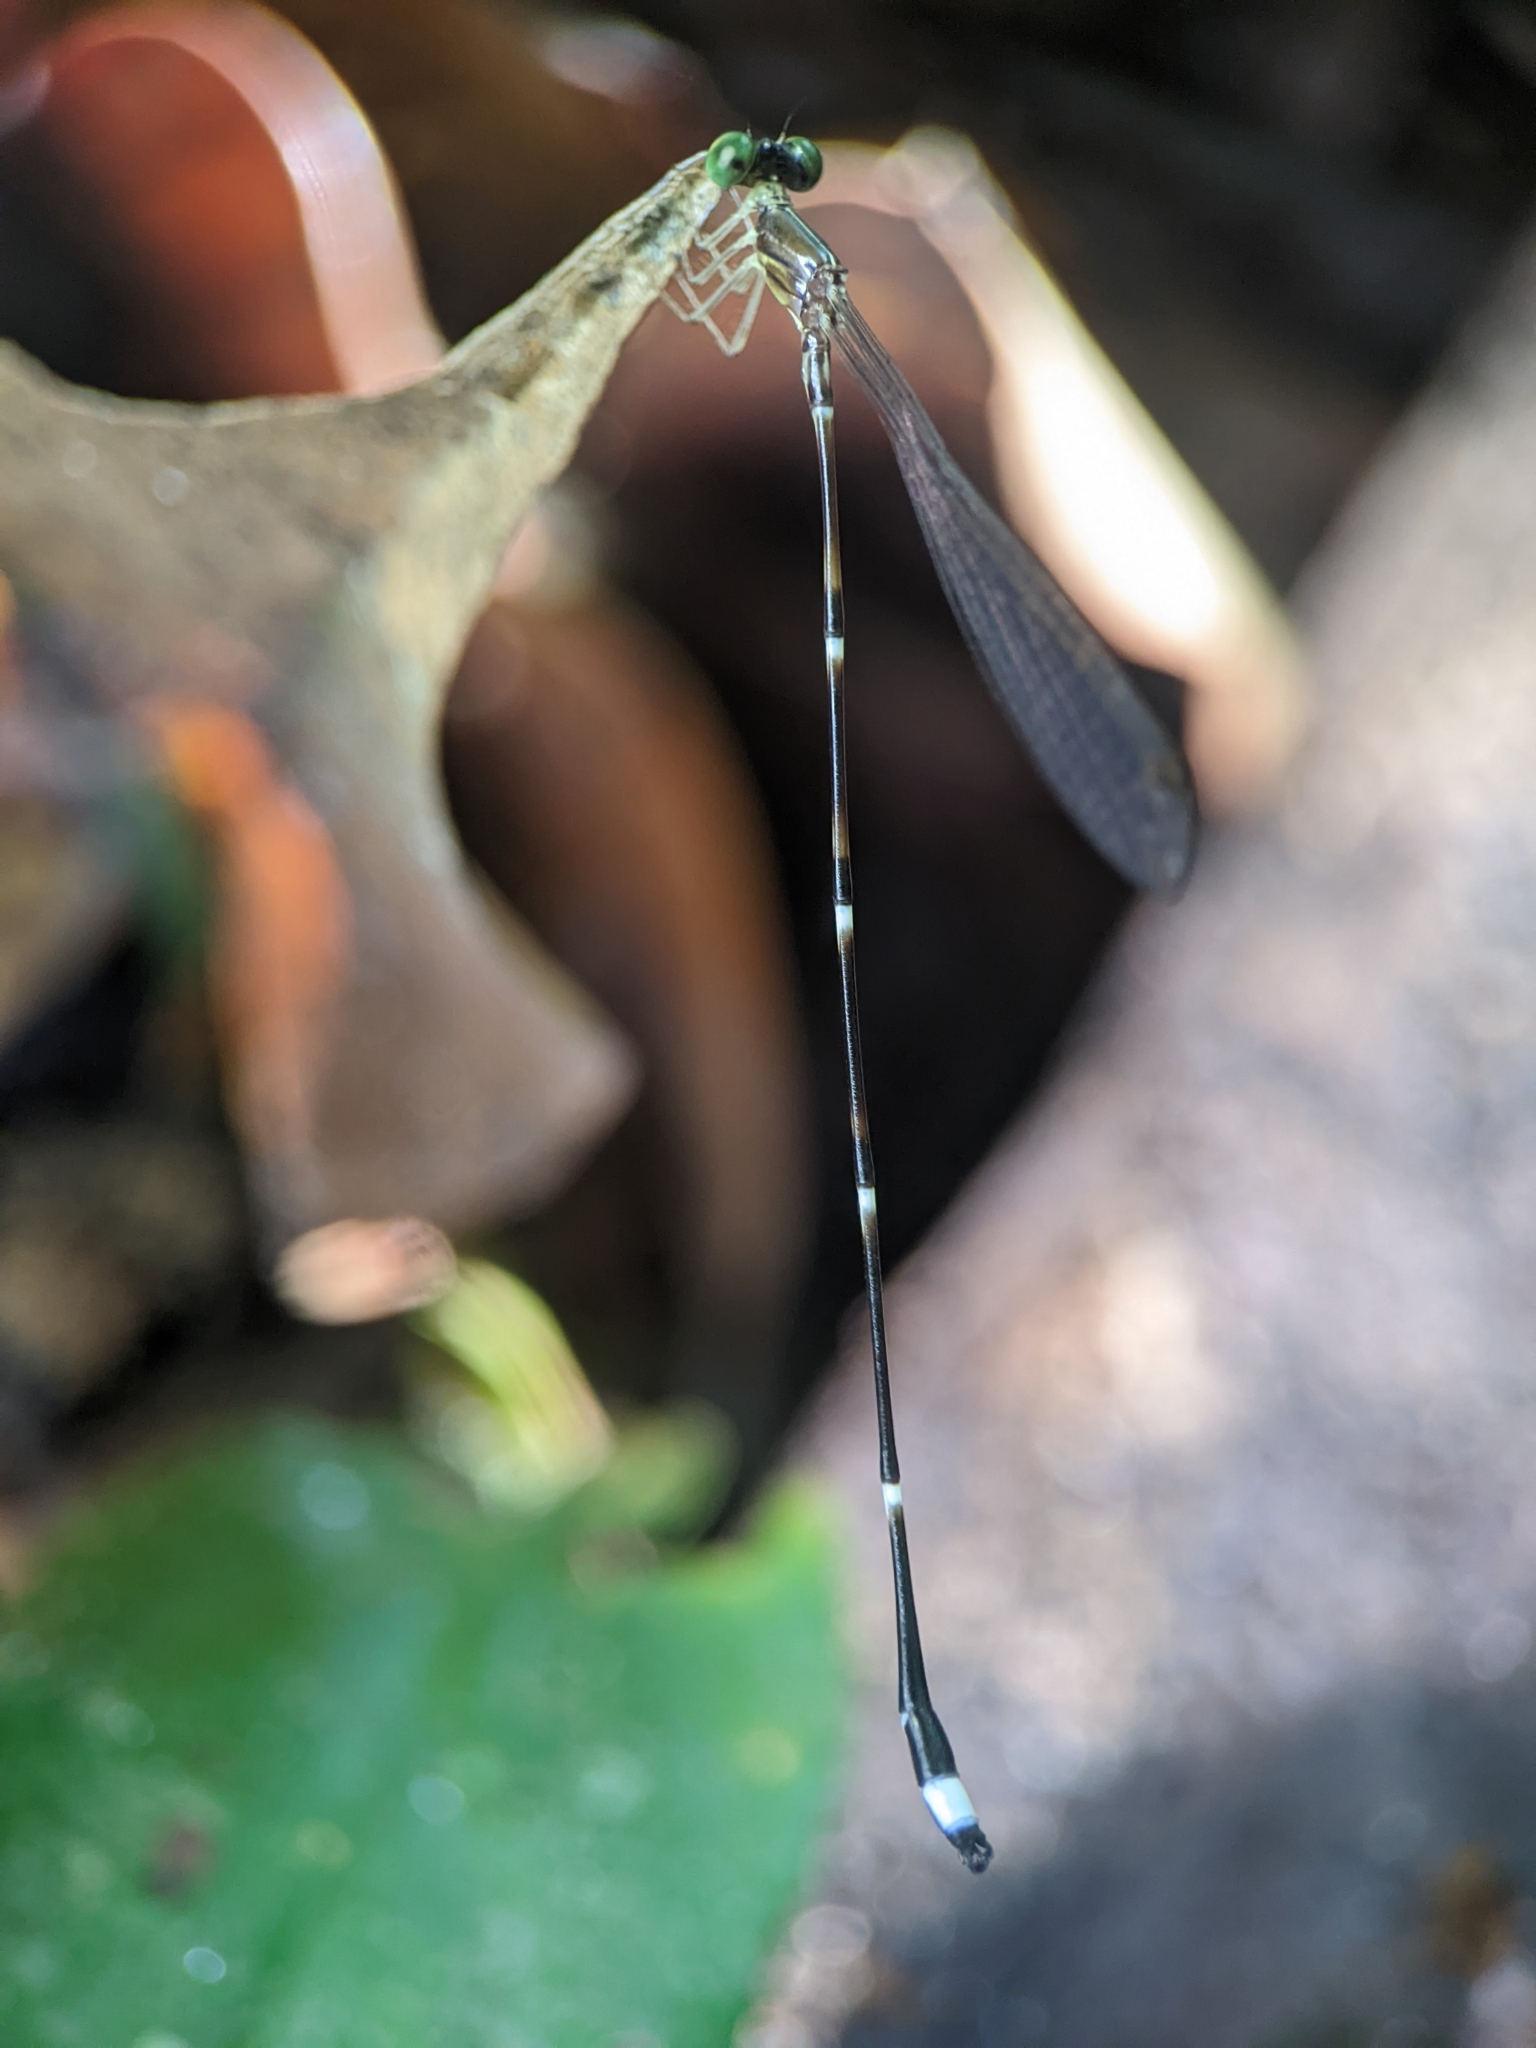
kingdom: Animalia
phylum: Arthropoda
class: Insecta
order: Odonata
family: Platystictidae
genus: Protosticta
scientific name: Protosticta foersteri
